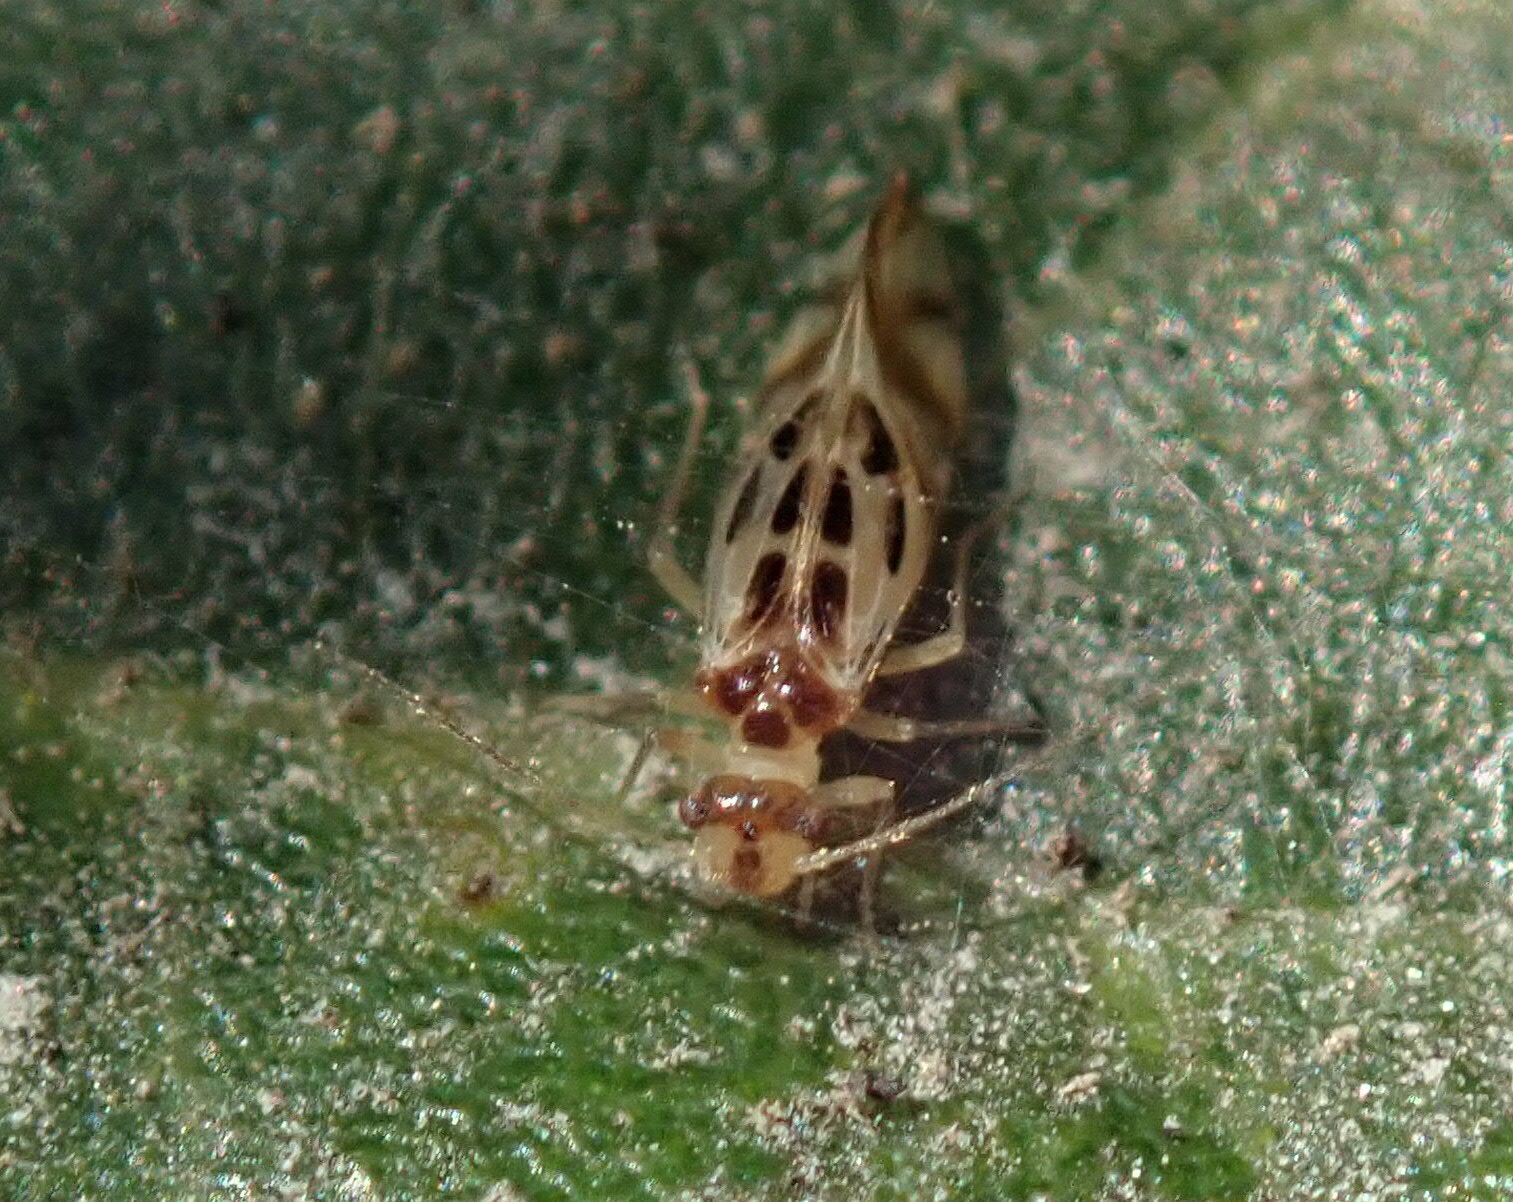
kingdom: Animalia
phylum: Arthropoda
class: Insecta
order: Psocodea
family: Stenopsocidae
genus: Graphopsocus
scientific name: Graphopsocus cruciatus
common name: Lizard bark louse
